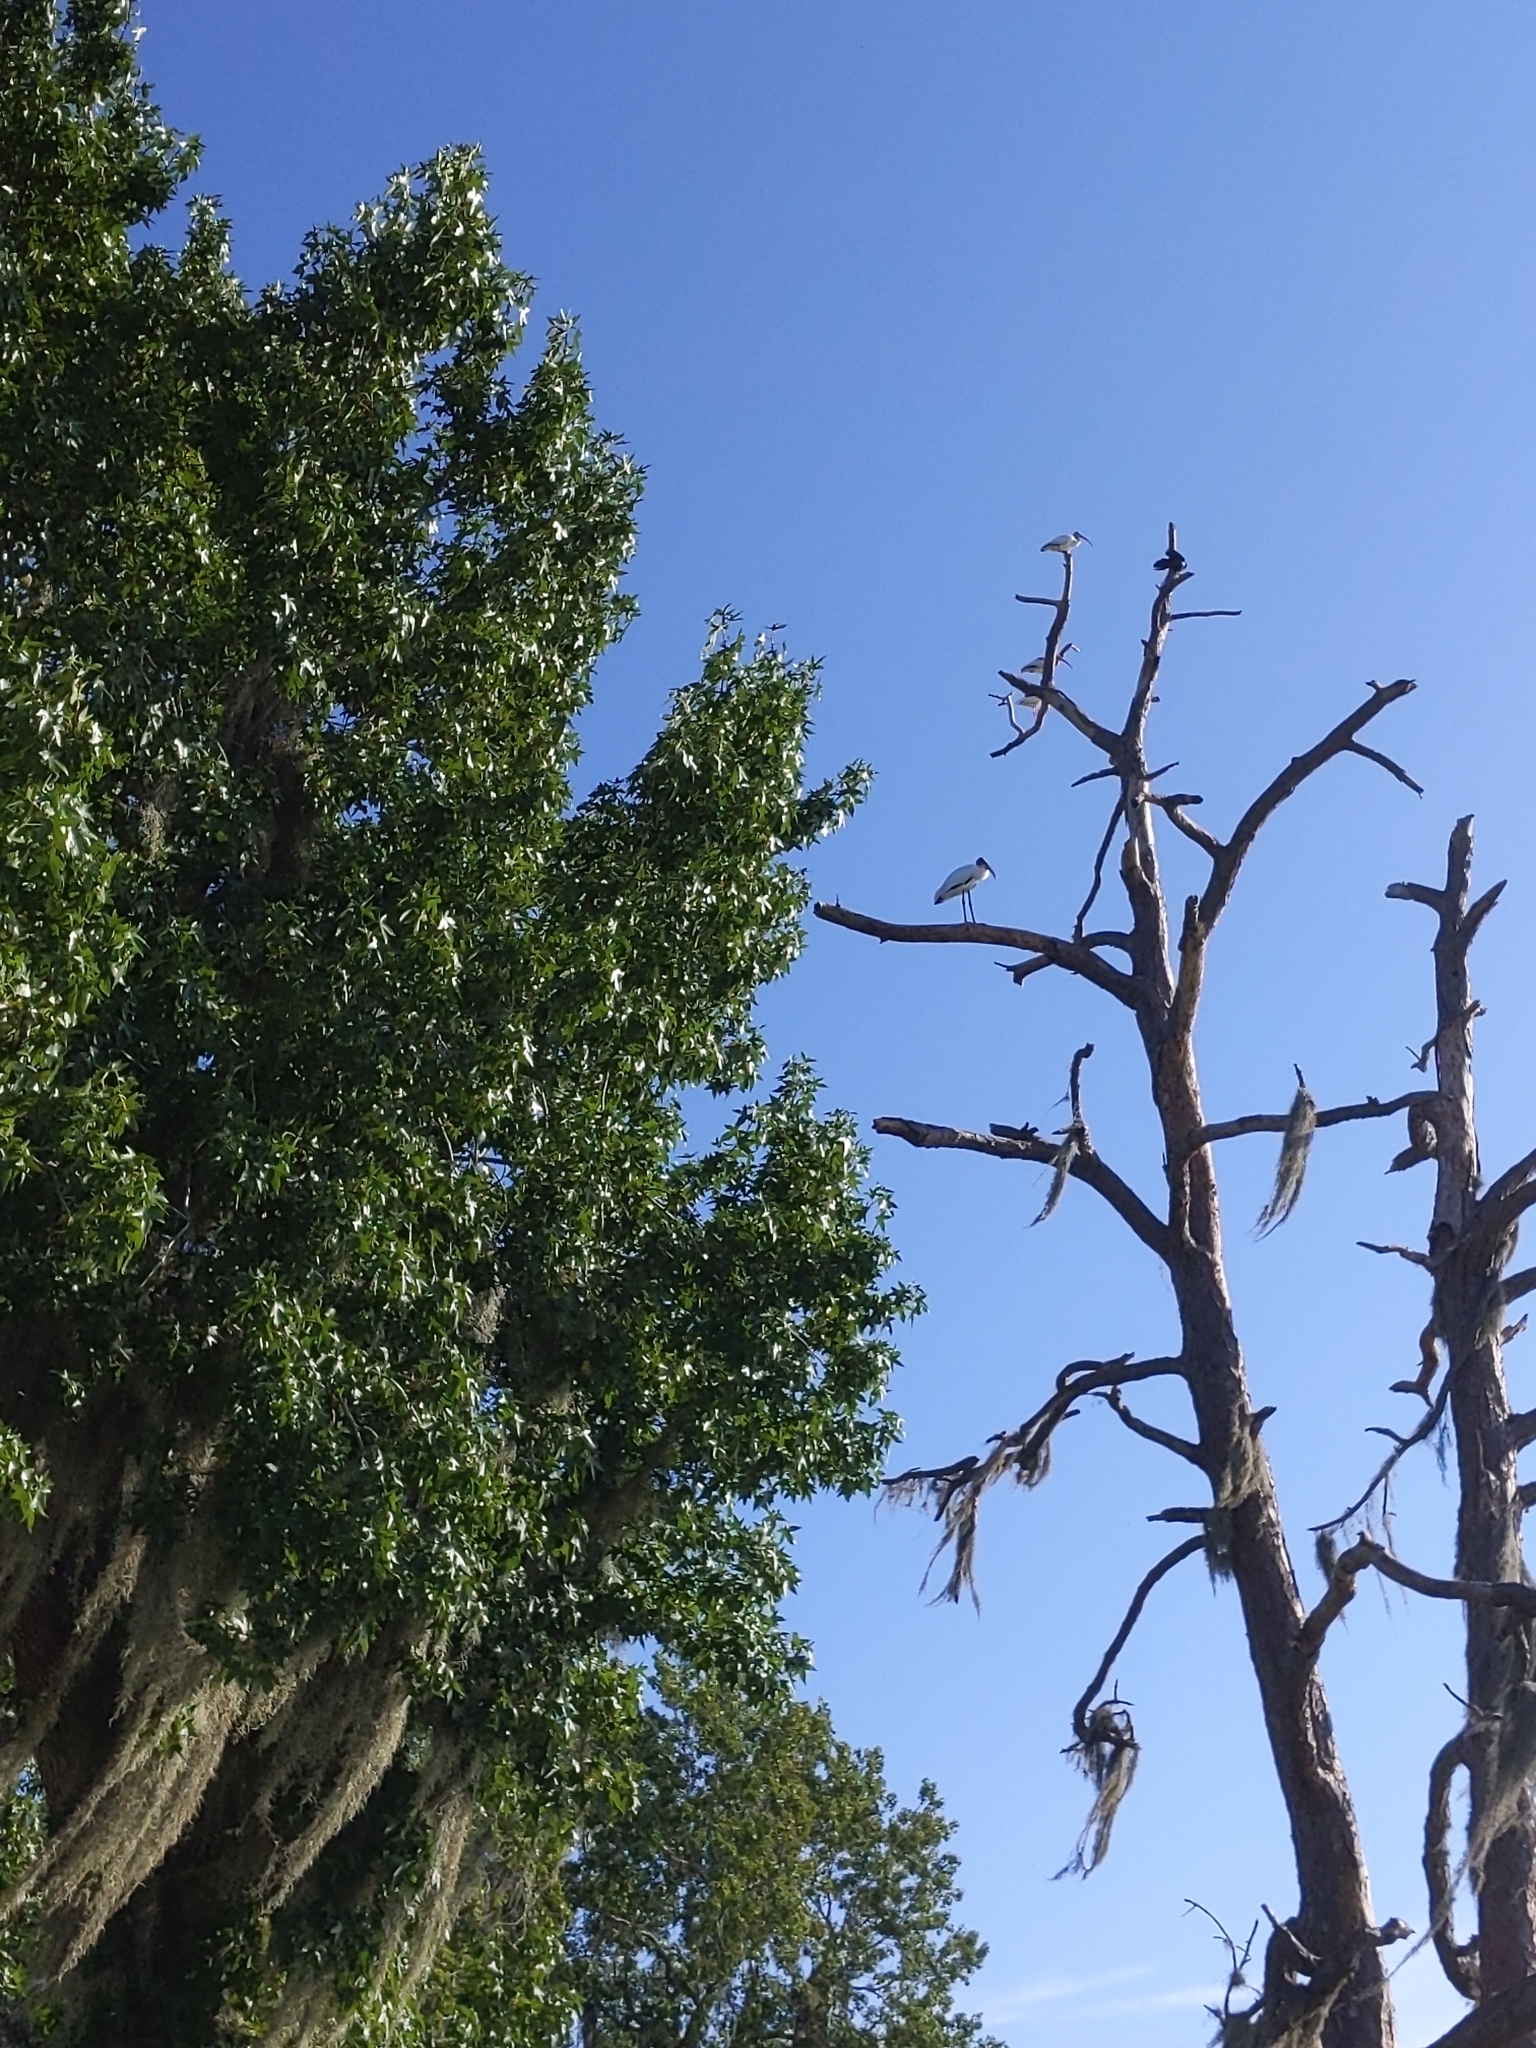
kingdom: Animalia
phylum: Chordata
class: Aves
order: Ciconiiformes
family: Ciconiidae
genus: Mycteria
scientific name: Mycteria americana
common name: Wood stork
